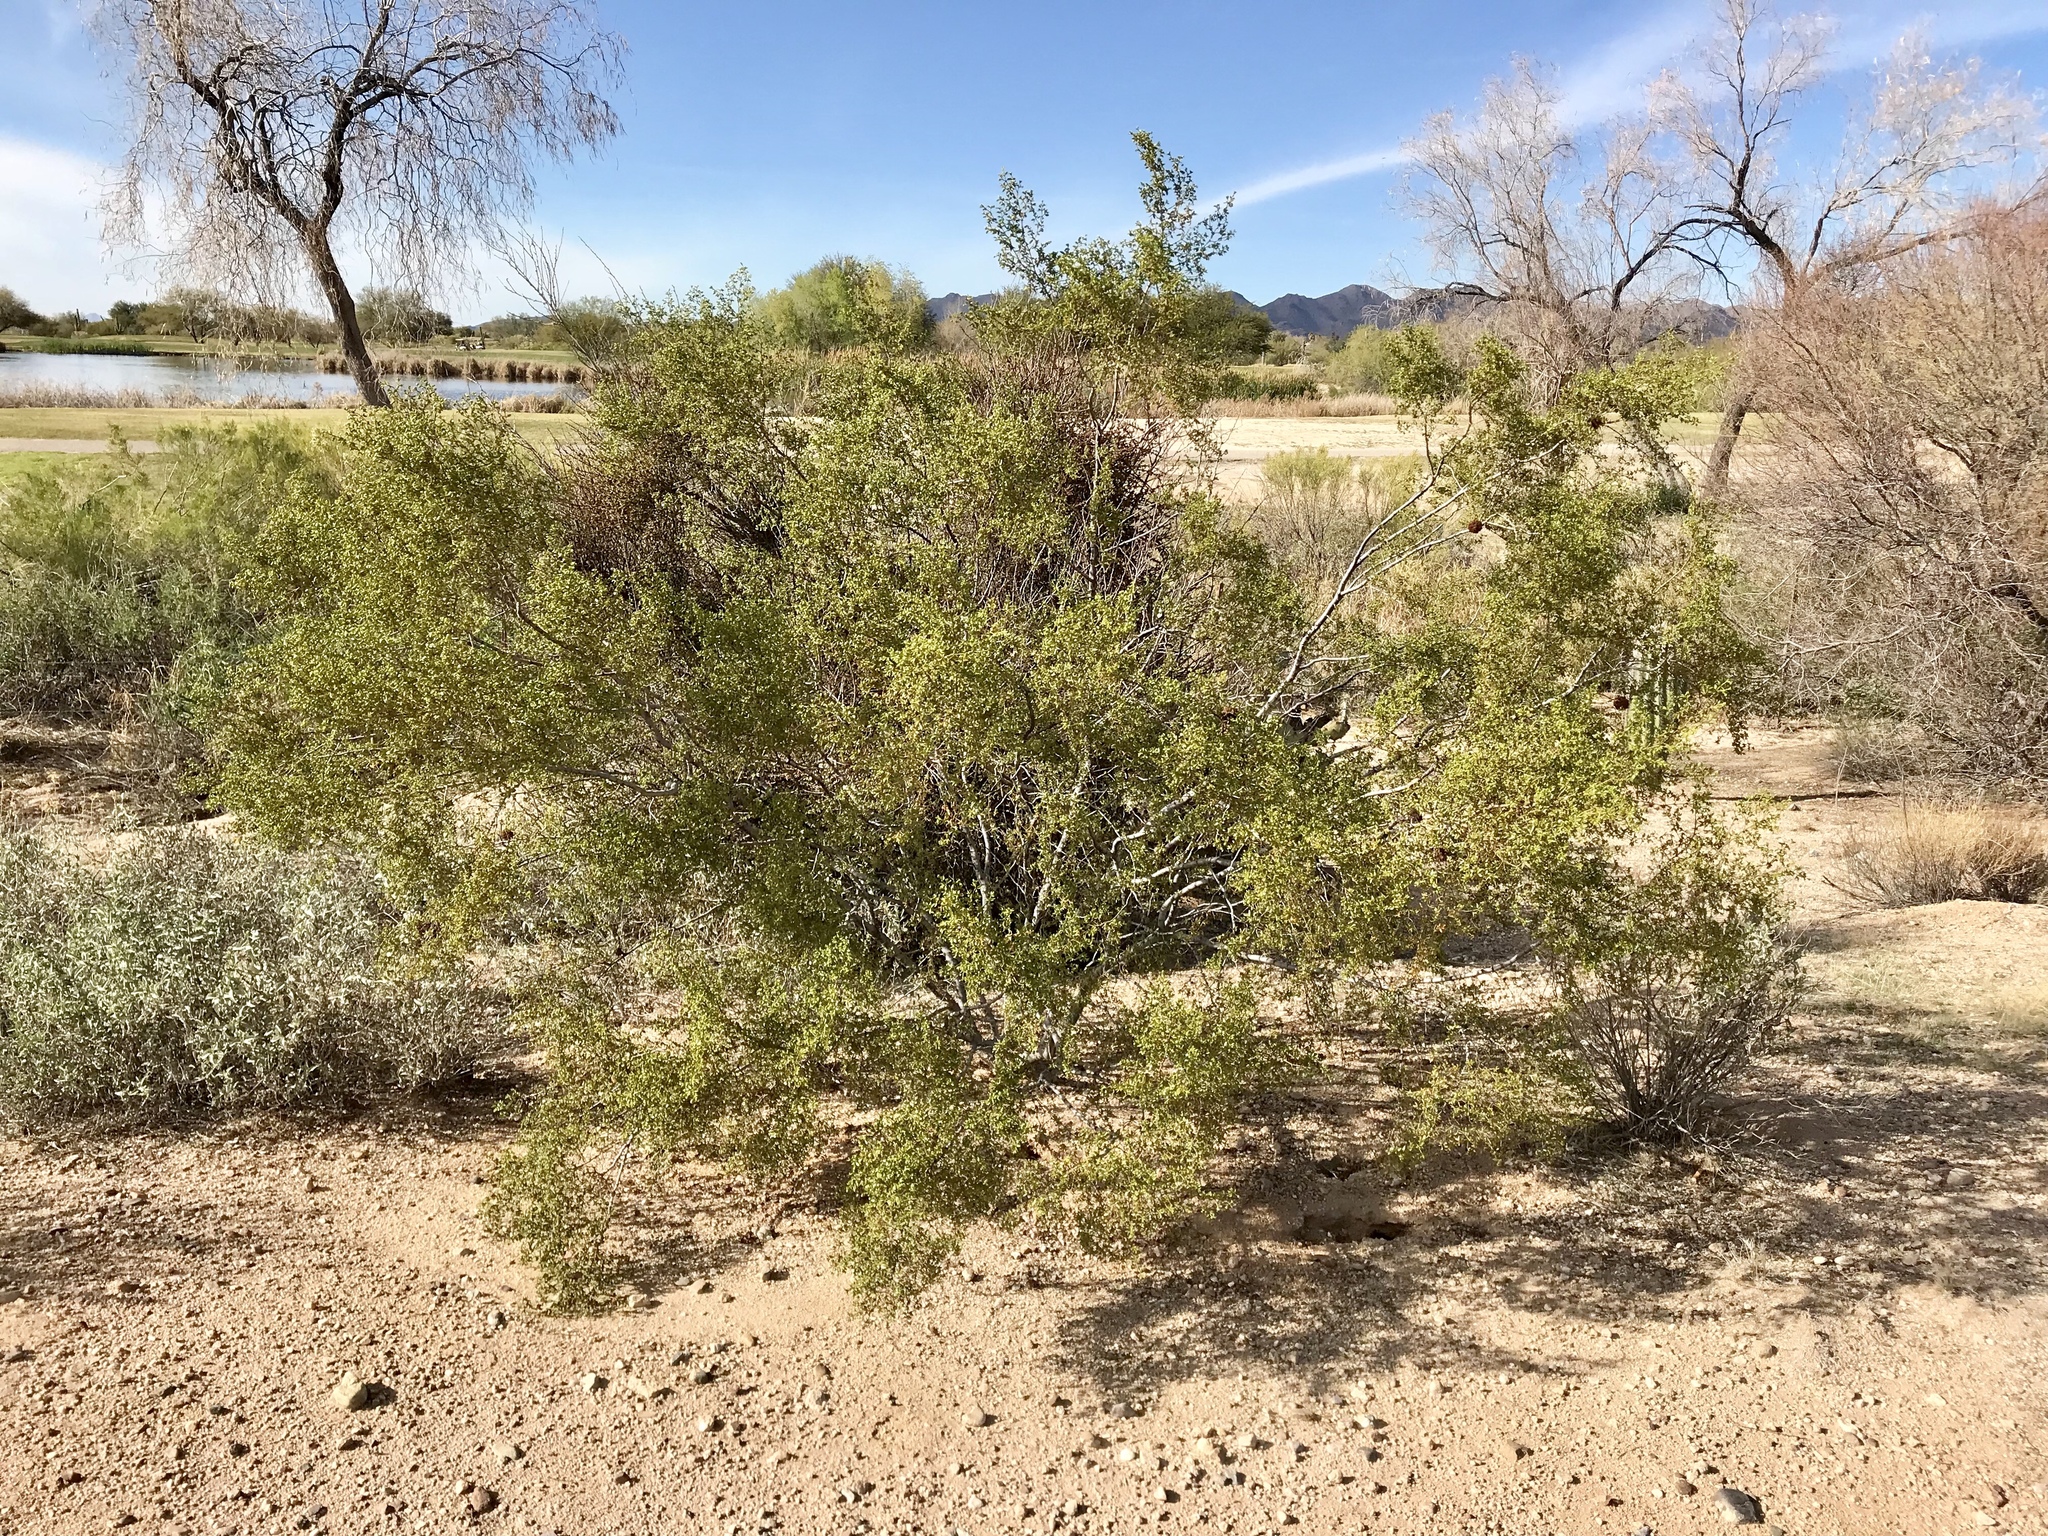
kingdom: Plantae
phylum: Tracheophyta
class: Magnoliopsida
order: Zygophyllales
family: Zygophyllaceae
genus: Larrea
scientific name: Larrea tridentata
